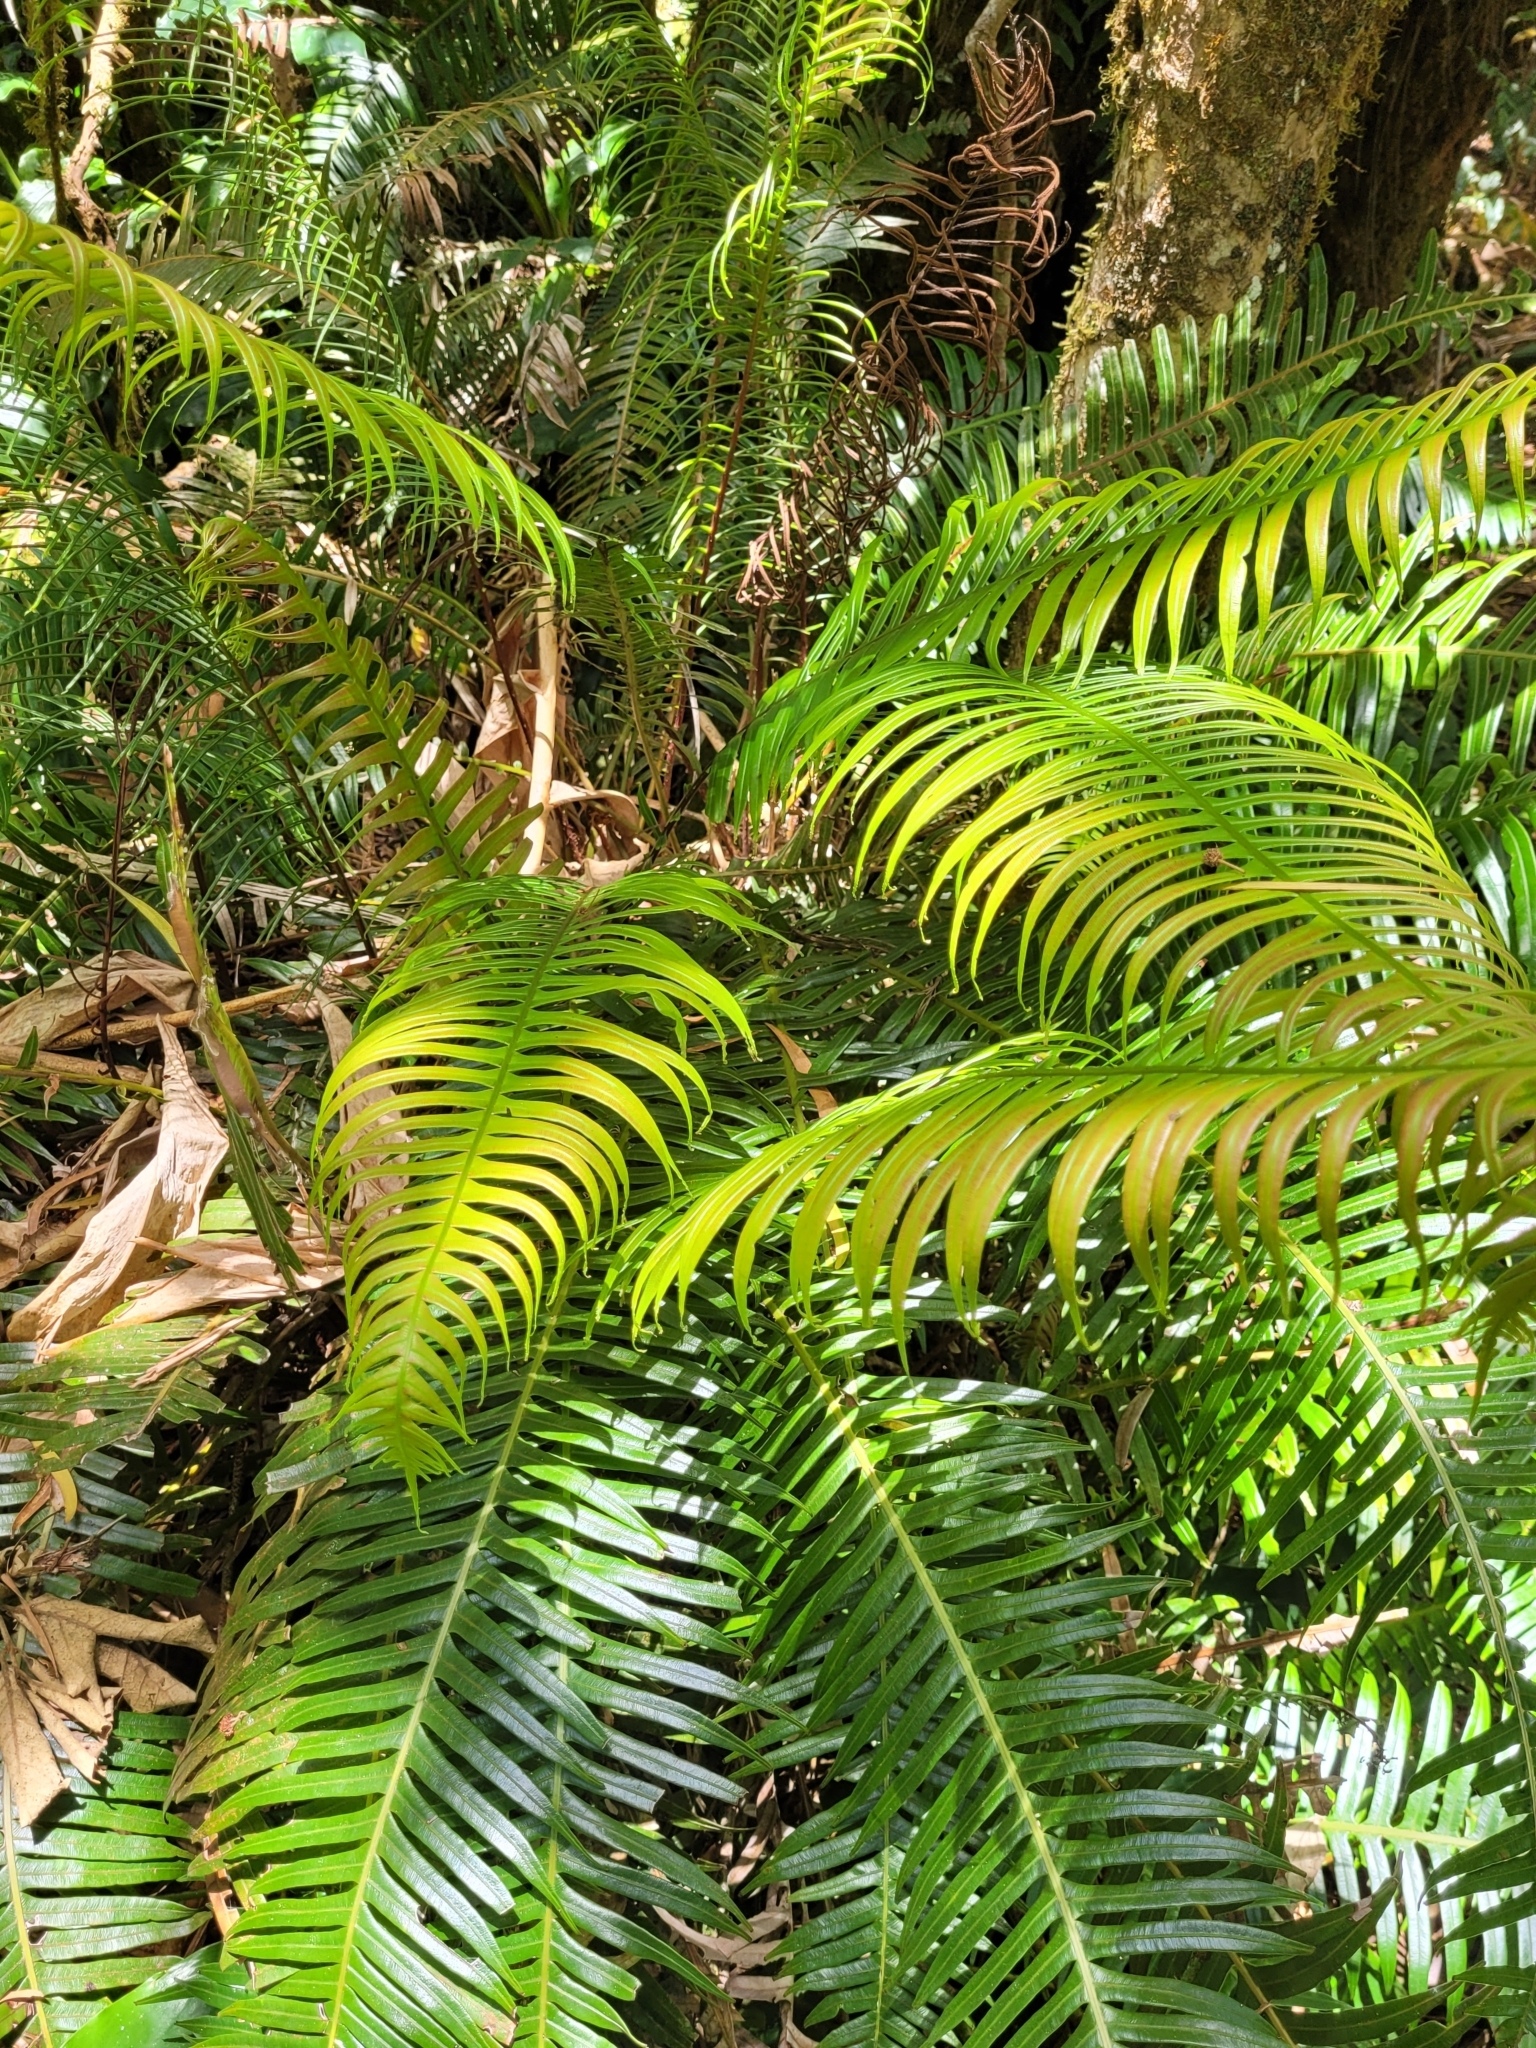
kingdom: Plantae
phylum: Tracheophyta
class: Polypodiopsida
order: Polypodiales
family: Blechnaceae
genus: Lomaridium
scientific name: Lomaridium attenuatum
